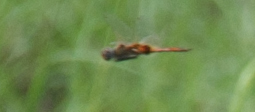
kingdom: Animalia
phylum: Arthropoda
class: Insecta
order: Odonata
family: Libellulidae
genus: Tramea
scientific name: Tramea basilaris
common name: Keyhole glider
